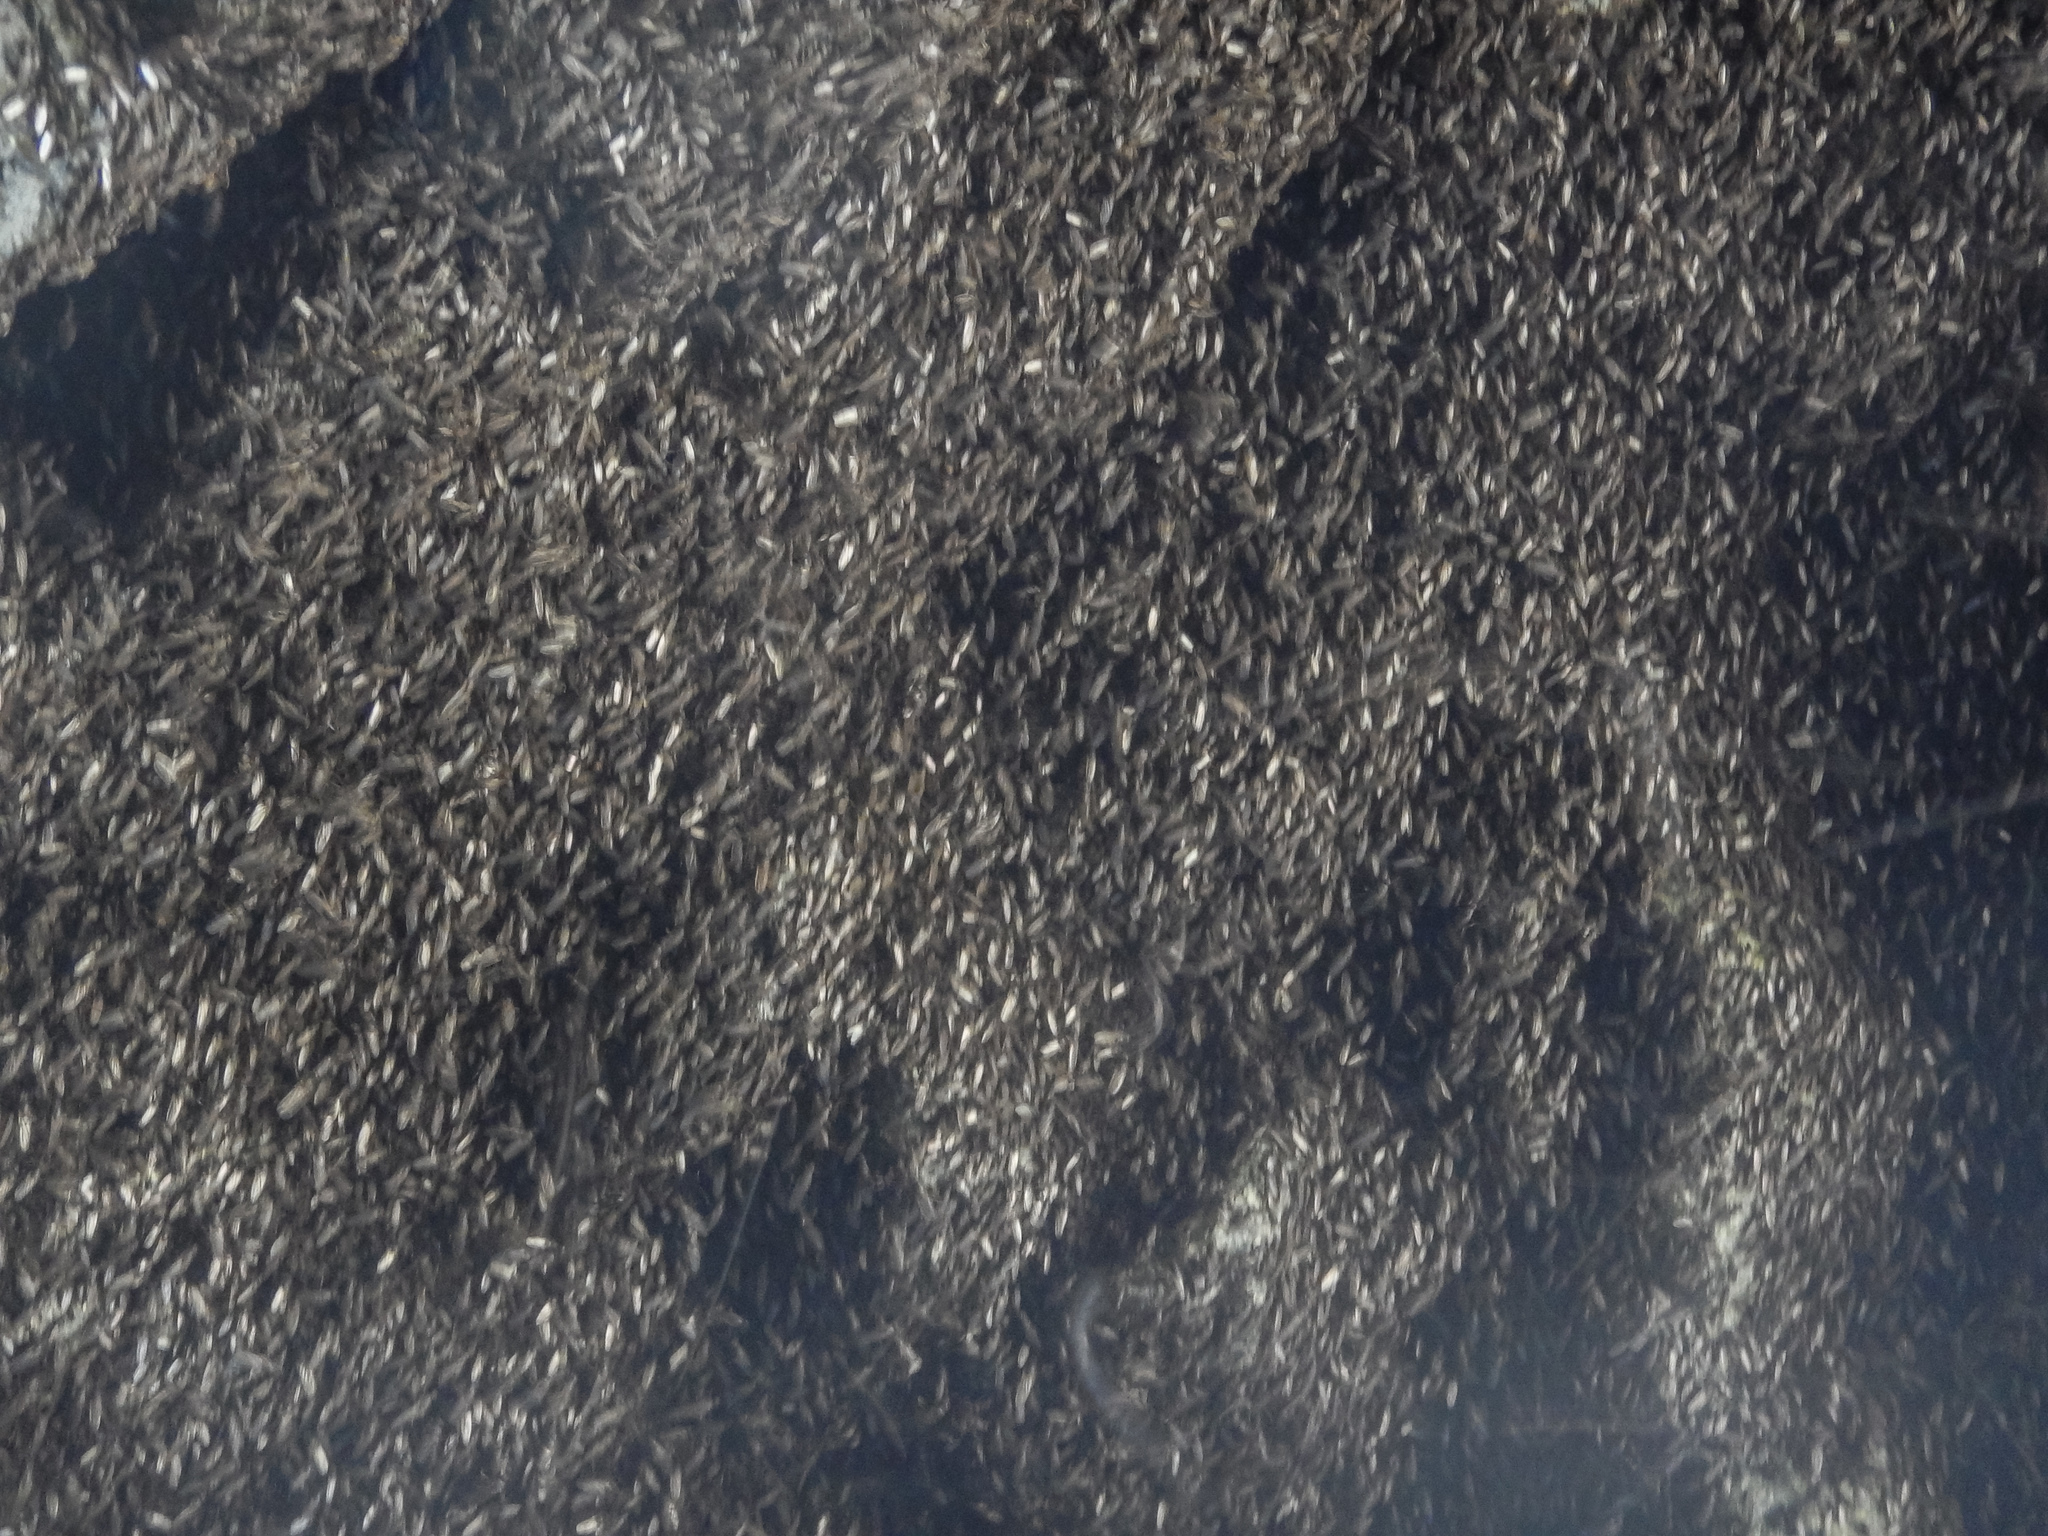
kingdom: Animalia
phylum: Arthropoda
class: Insecta
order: Diptera
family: Coelopidae
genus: Chaetocoelopa
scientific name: Chaetocoelopa littoralis
